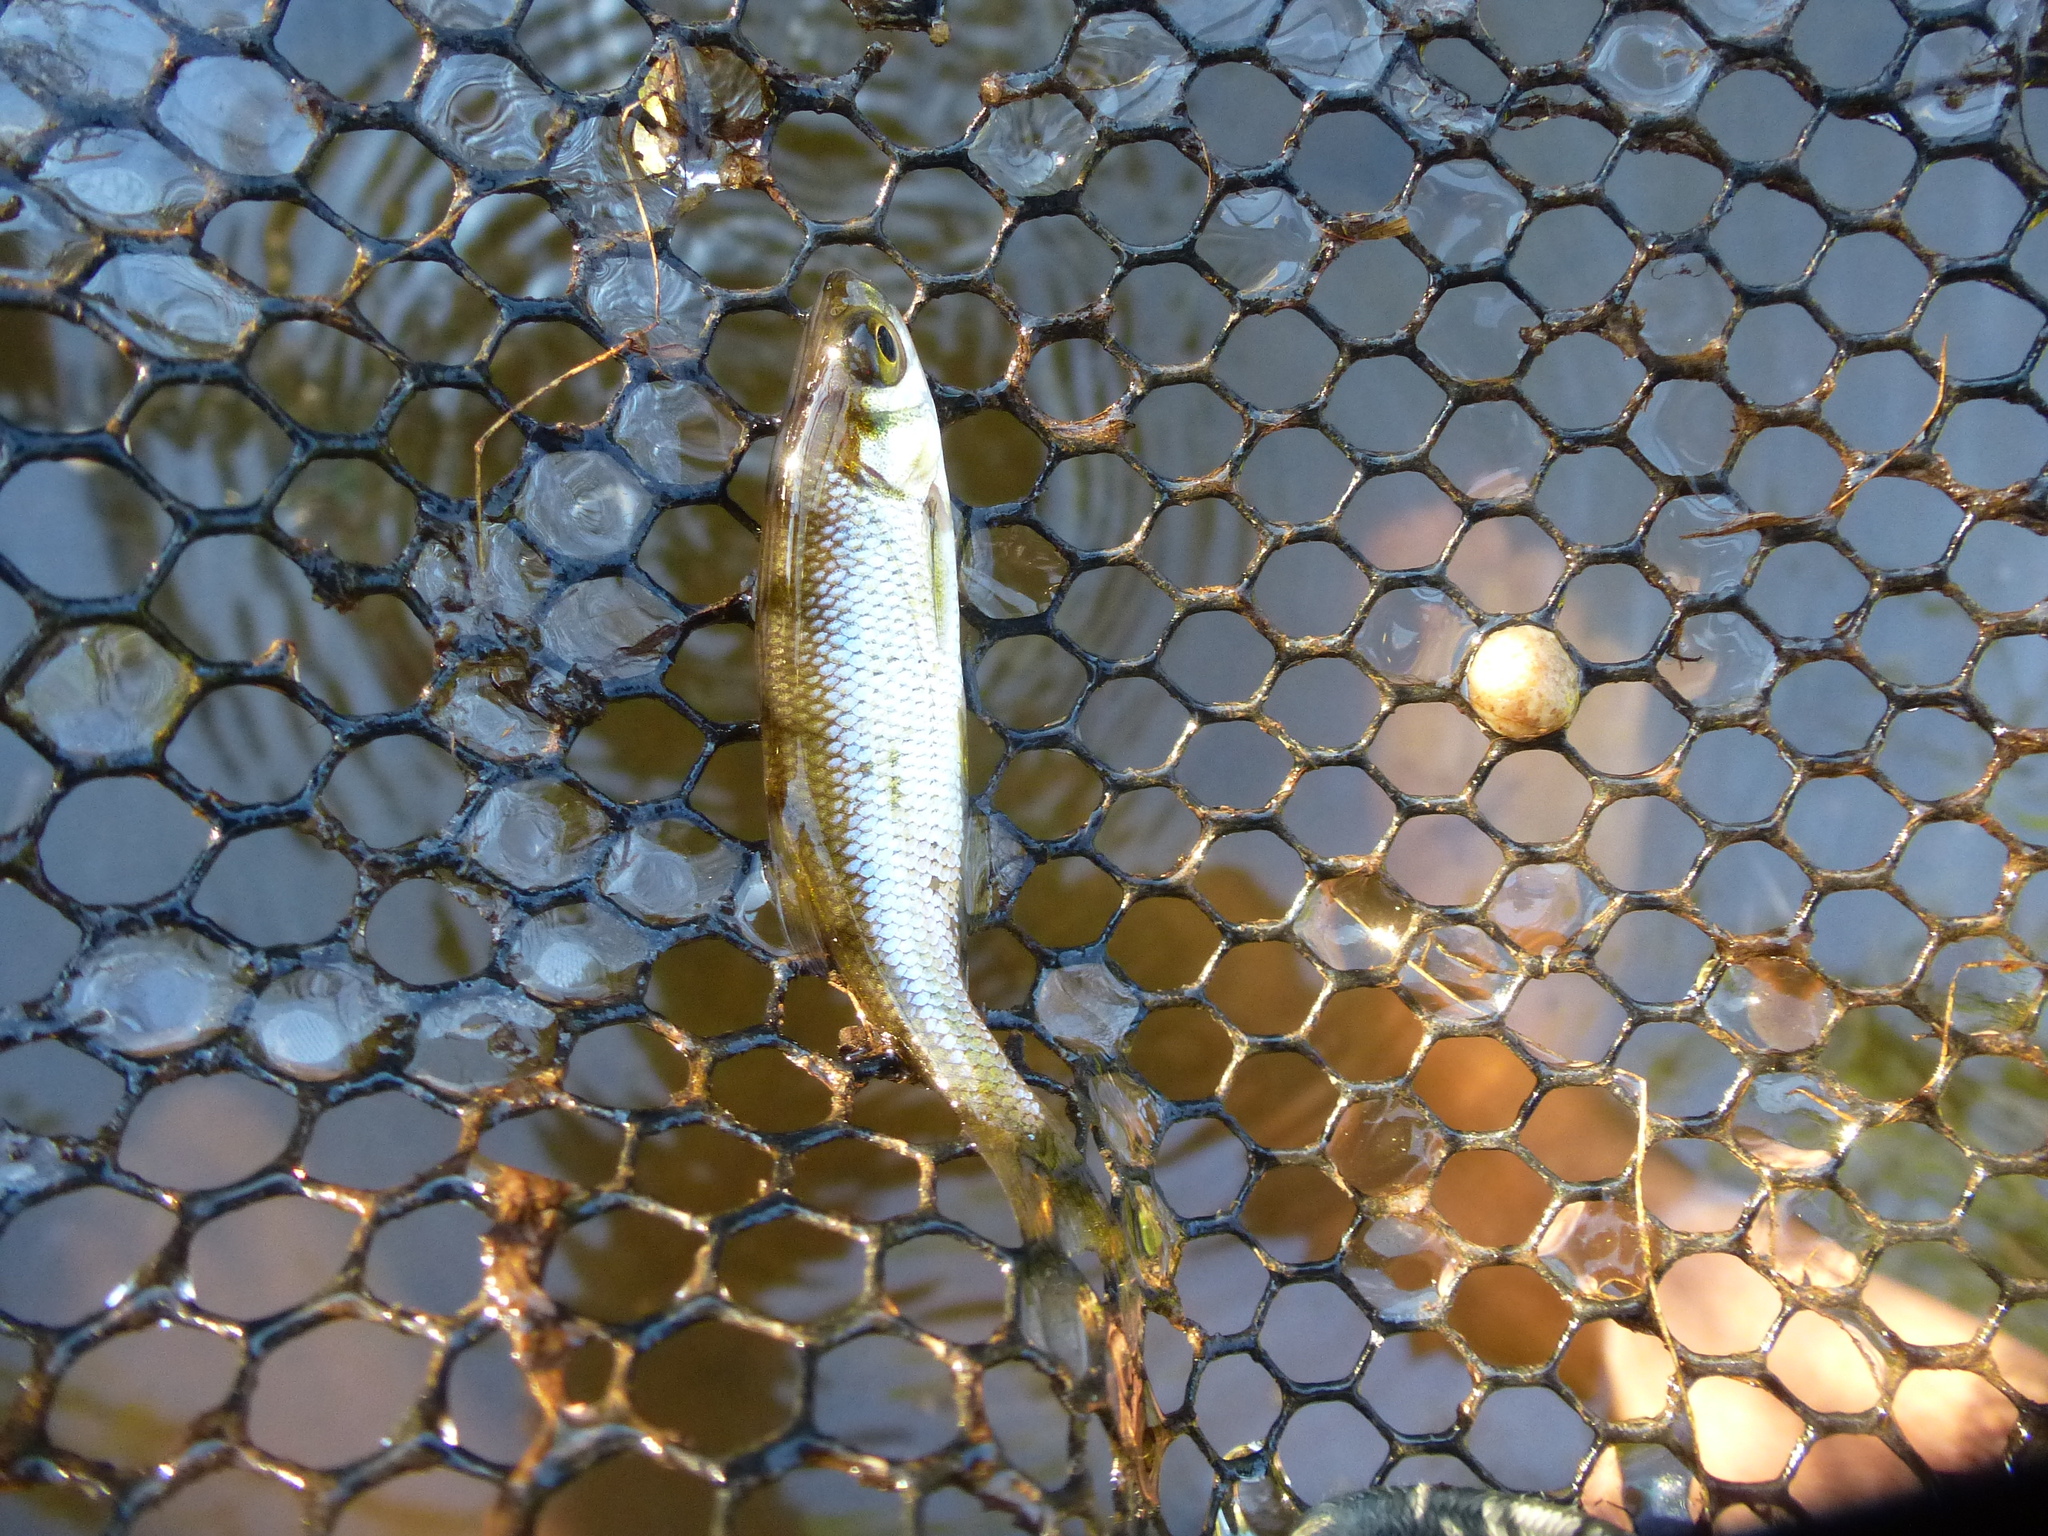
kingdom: Animalia
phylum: Chordata
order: Cypriniformes
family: Cyprinidae
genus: Notemigonus
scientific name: Notemigonus crysoleucas
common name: Golden shiner
